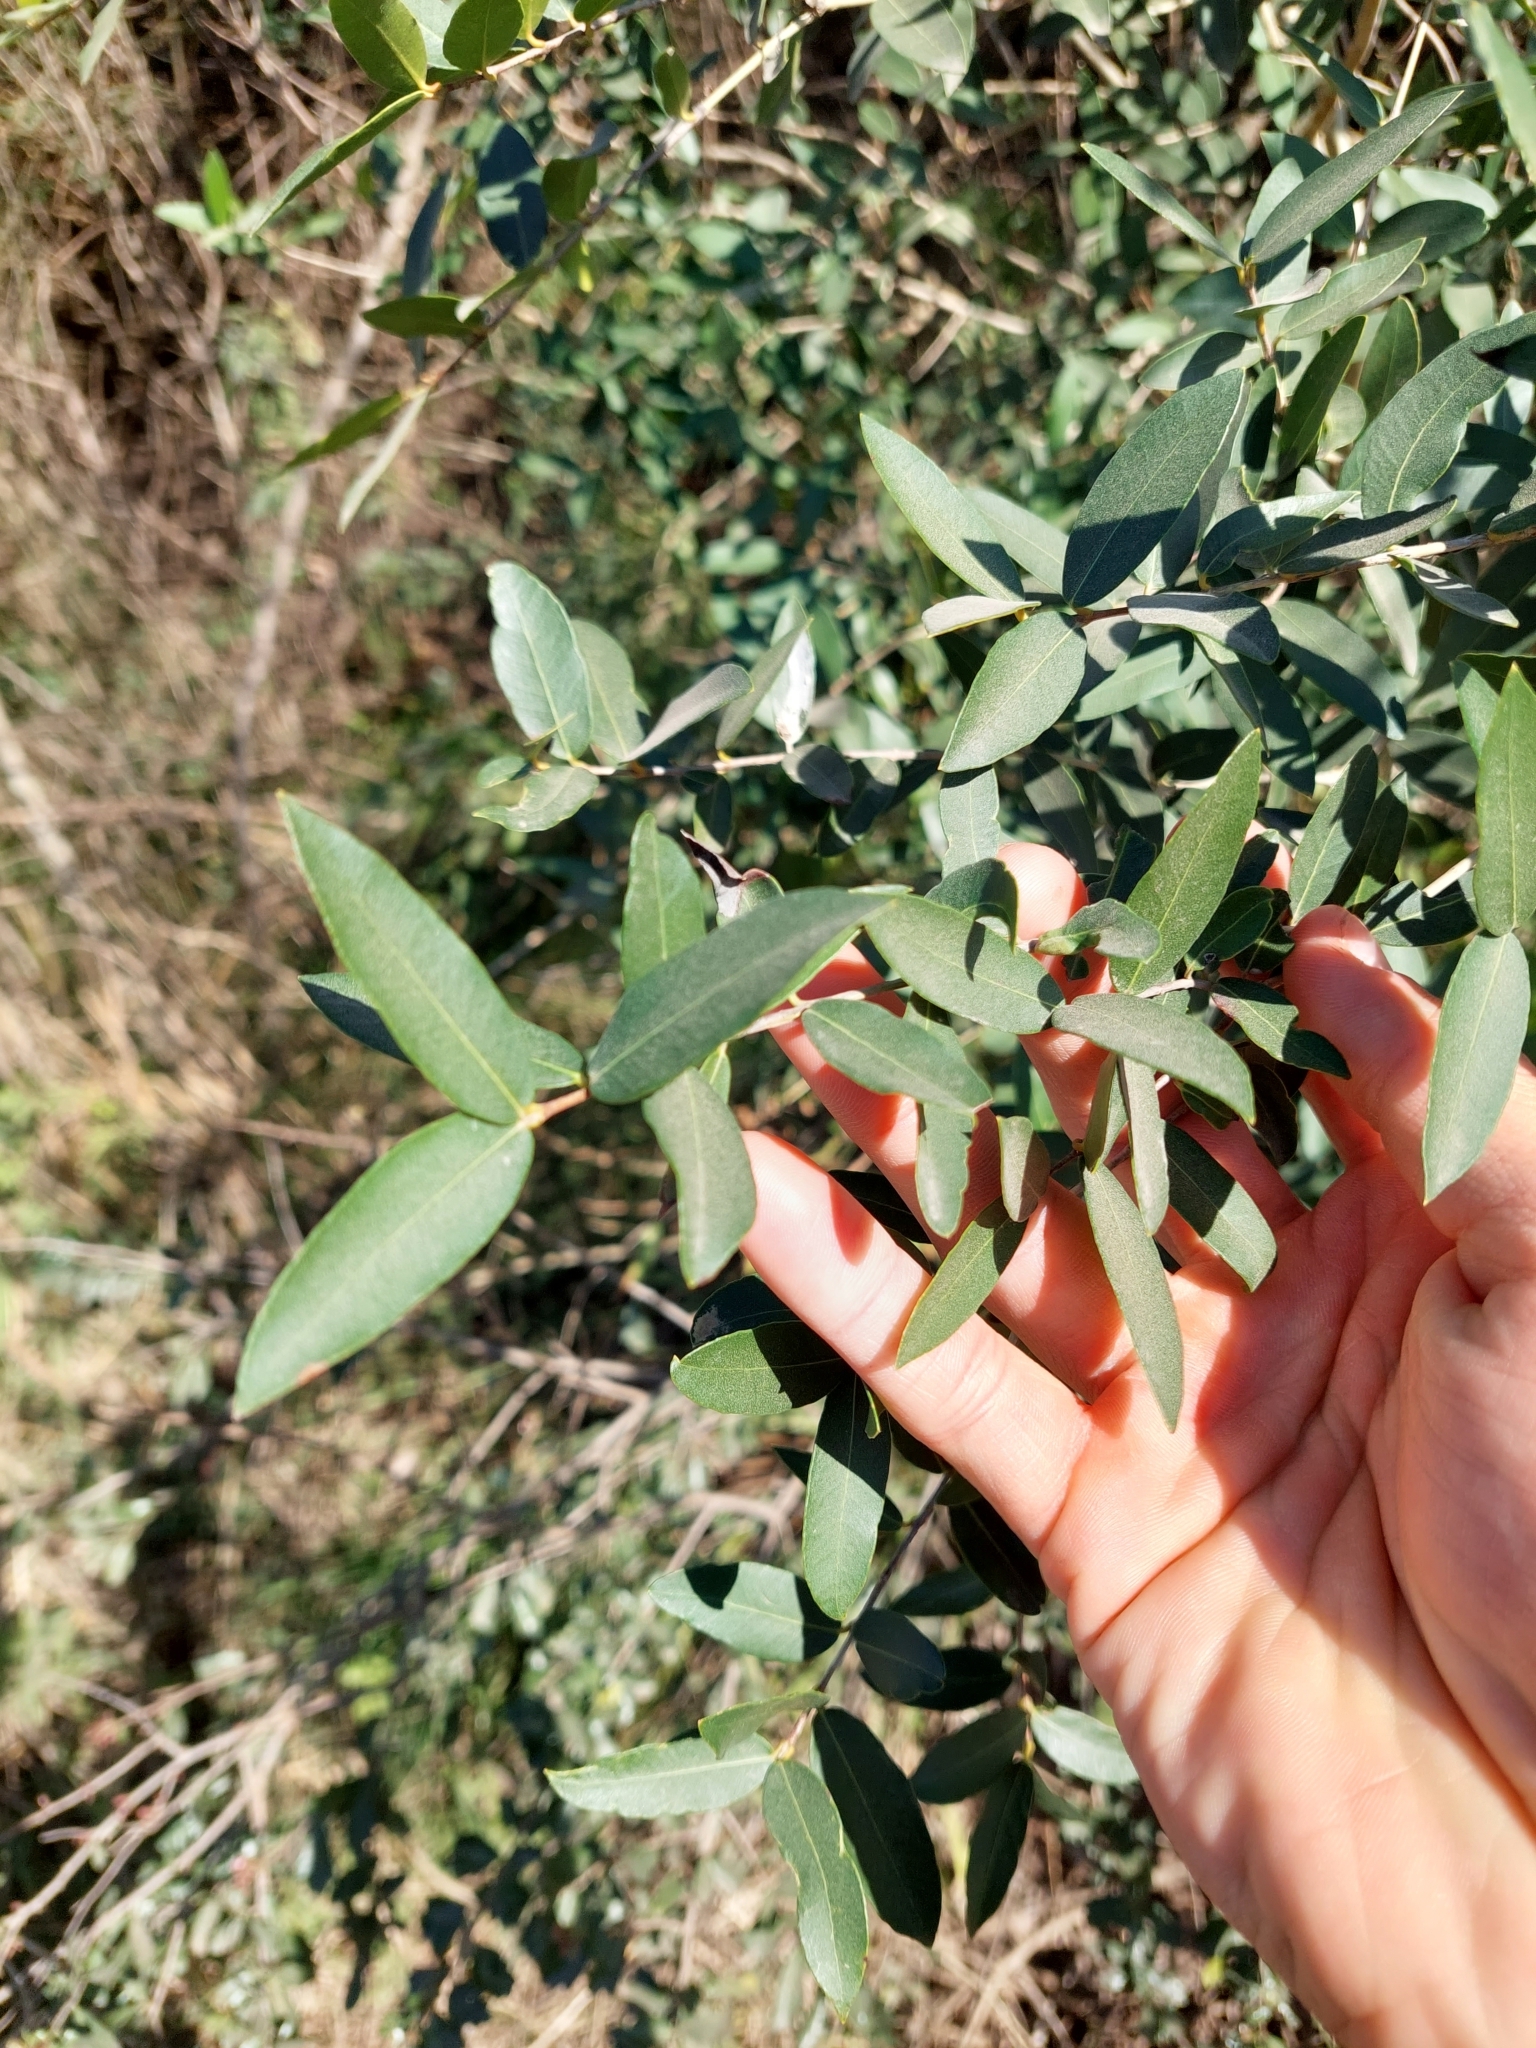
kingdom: Plantae
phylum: Tracheophyta
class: Magnoliopsida
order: Myrtales
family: Myrtaceae
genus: Myrcianthes
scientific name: Myrcianthes cisplatensis
